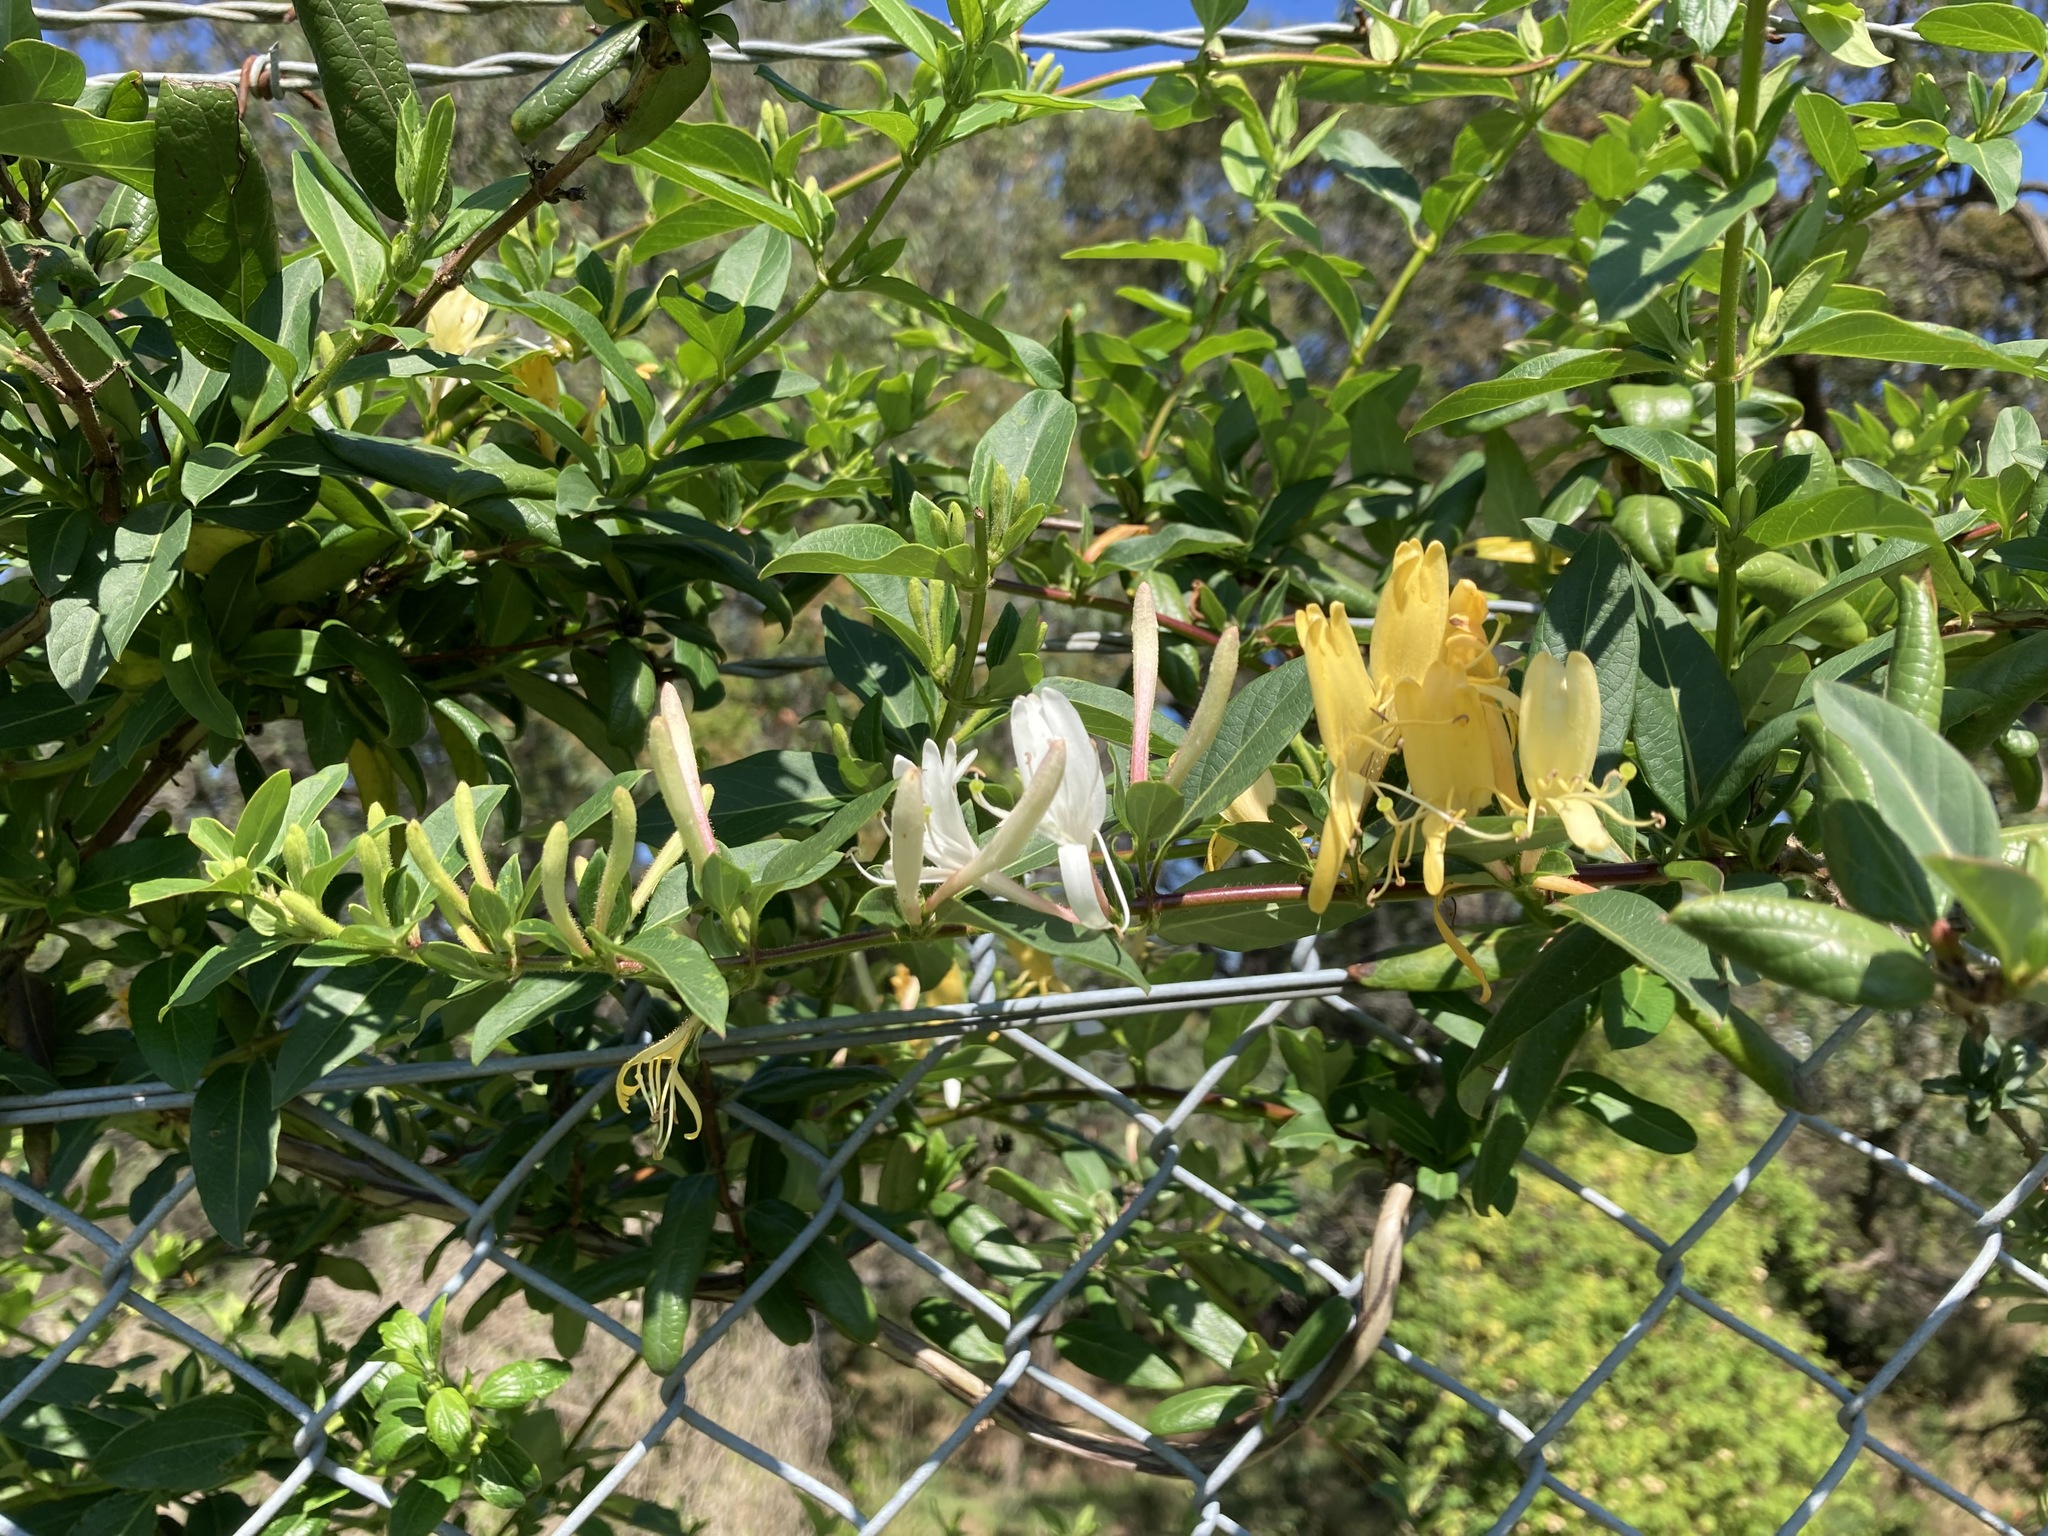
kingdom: Plantae
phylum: Tracheophyta
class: Magnoliopsida
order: Dipsacales
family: Caprifoliaceae
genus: Lonicera
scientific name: Lonicera japonica
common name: Japanese honeysuckle
